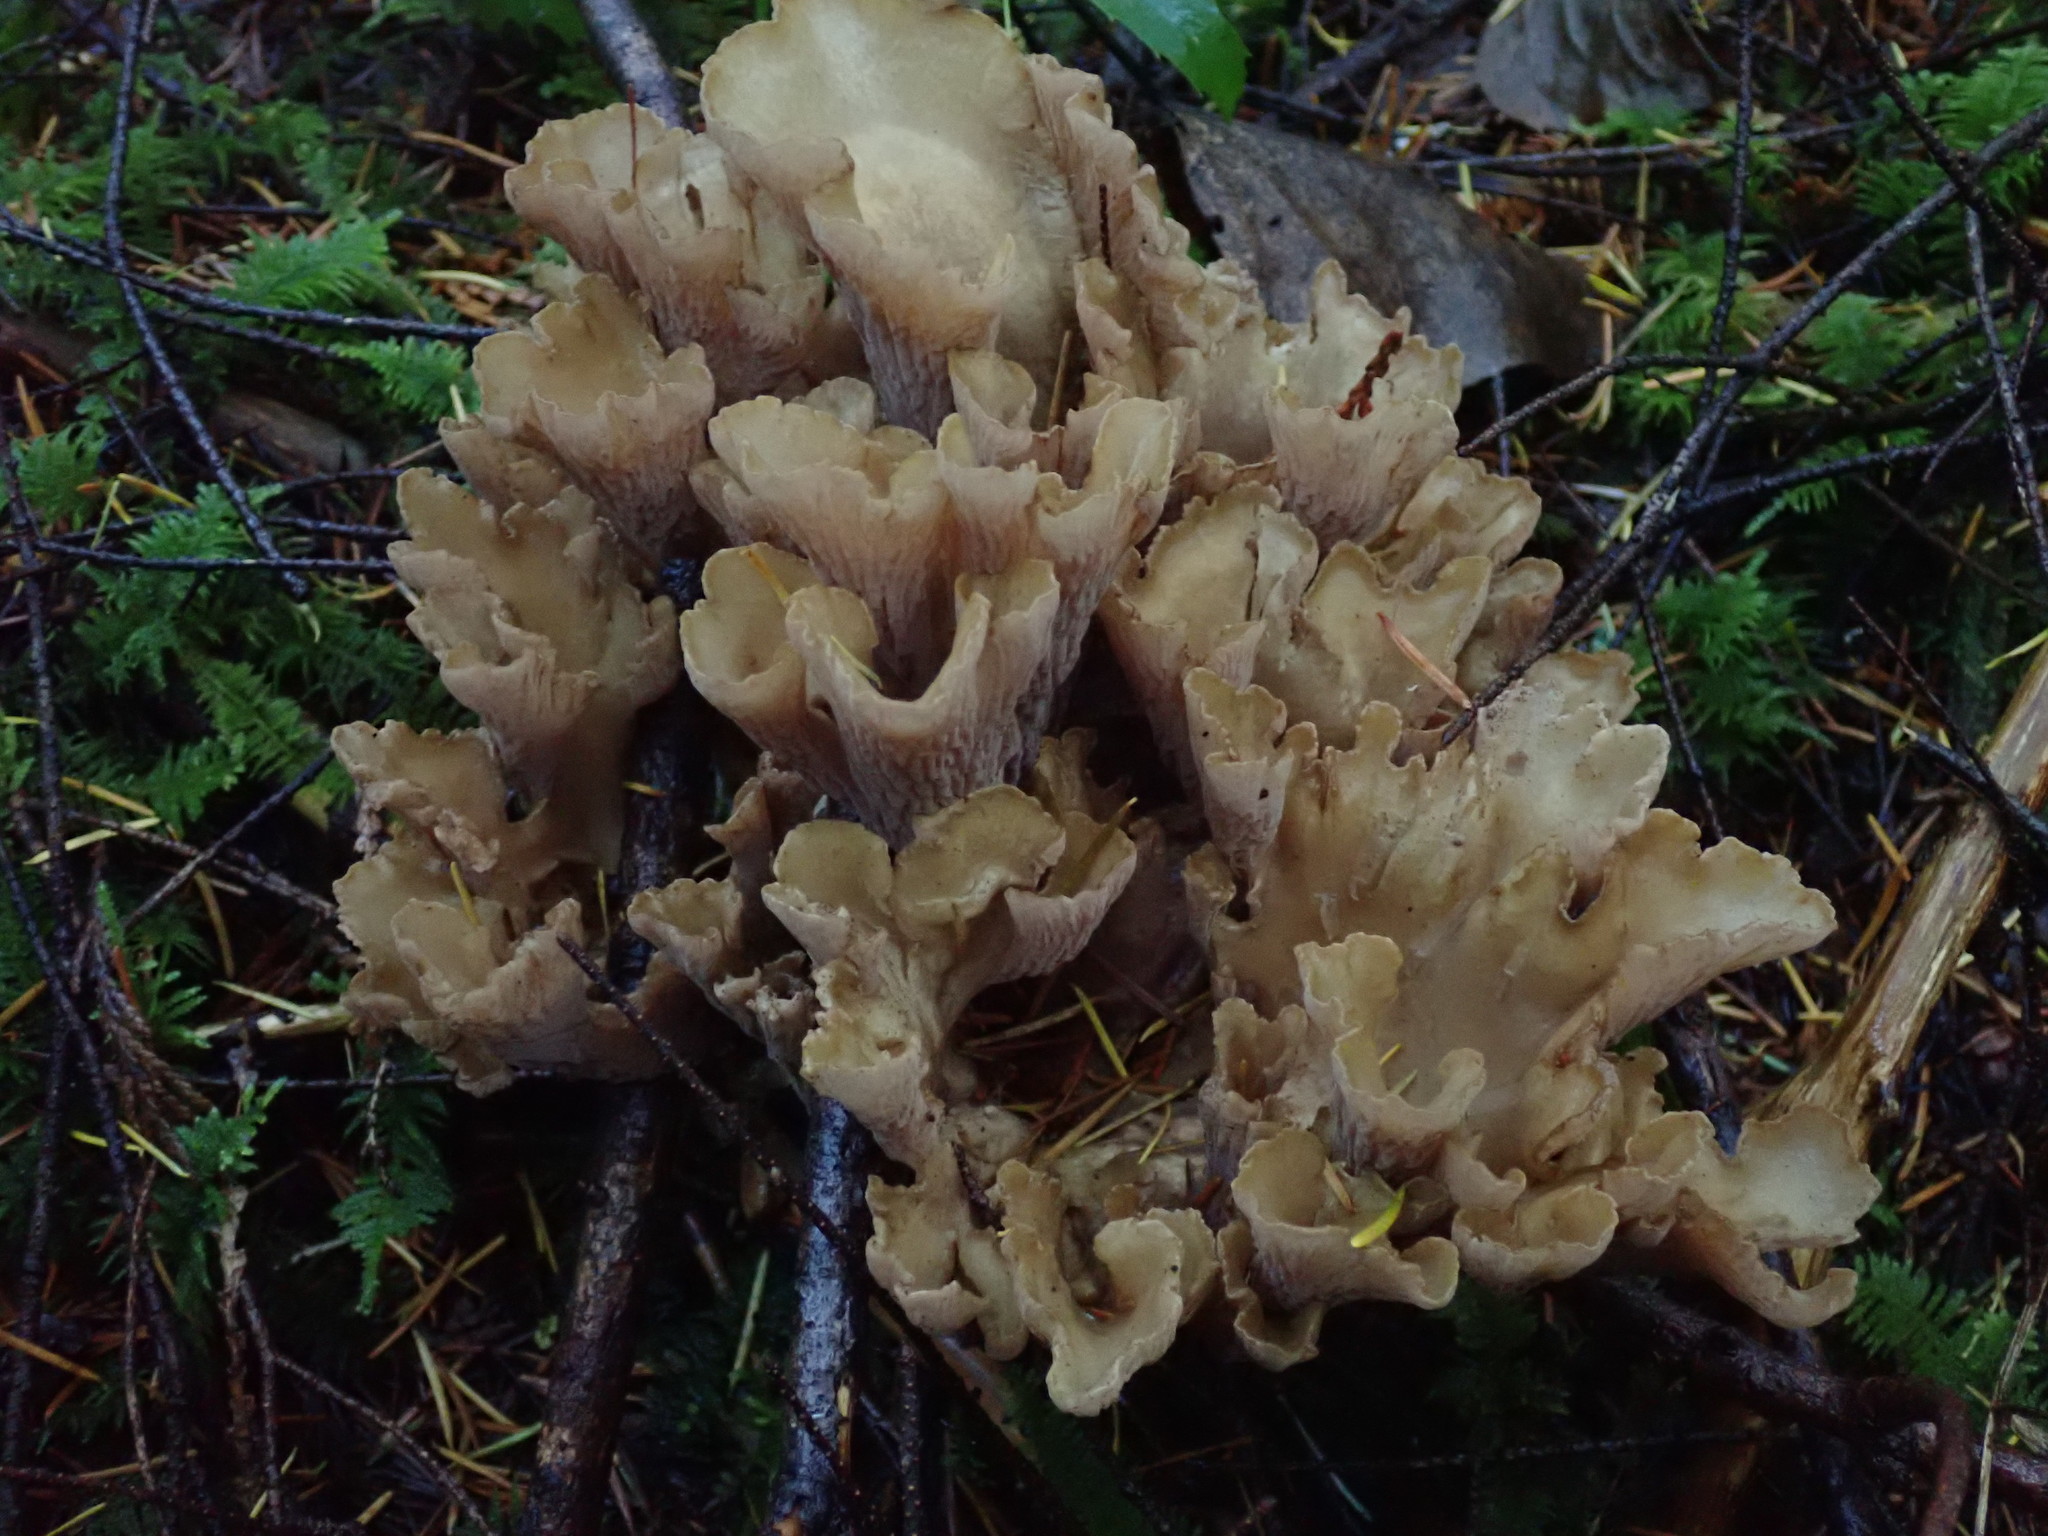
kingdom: Fungi
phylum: Basidiomycota
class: Agaricomycetes
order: Gomphales
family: Gomphaceae
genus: Gomphus
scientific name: Gomphus clavatus
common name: Pig's ear
